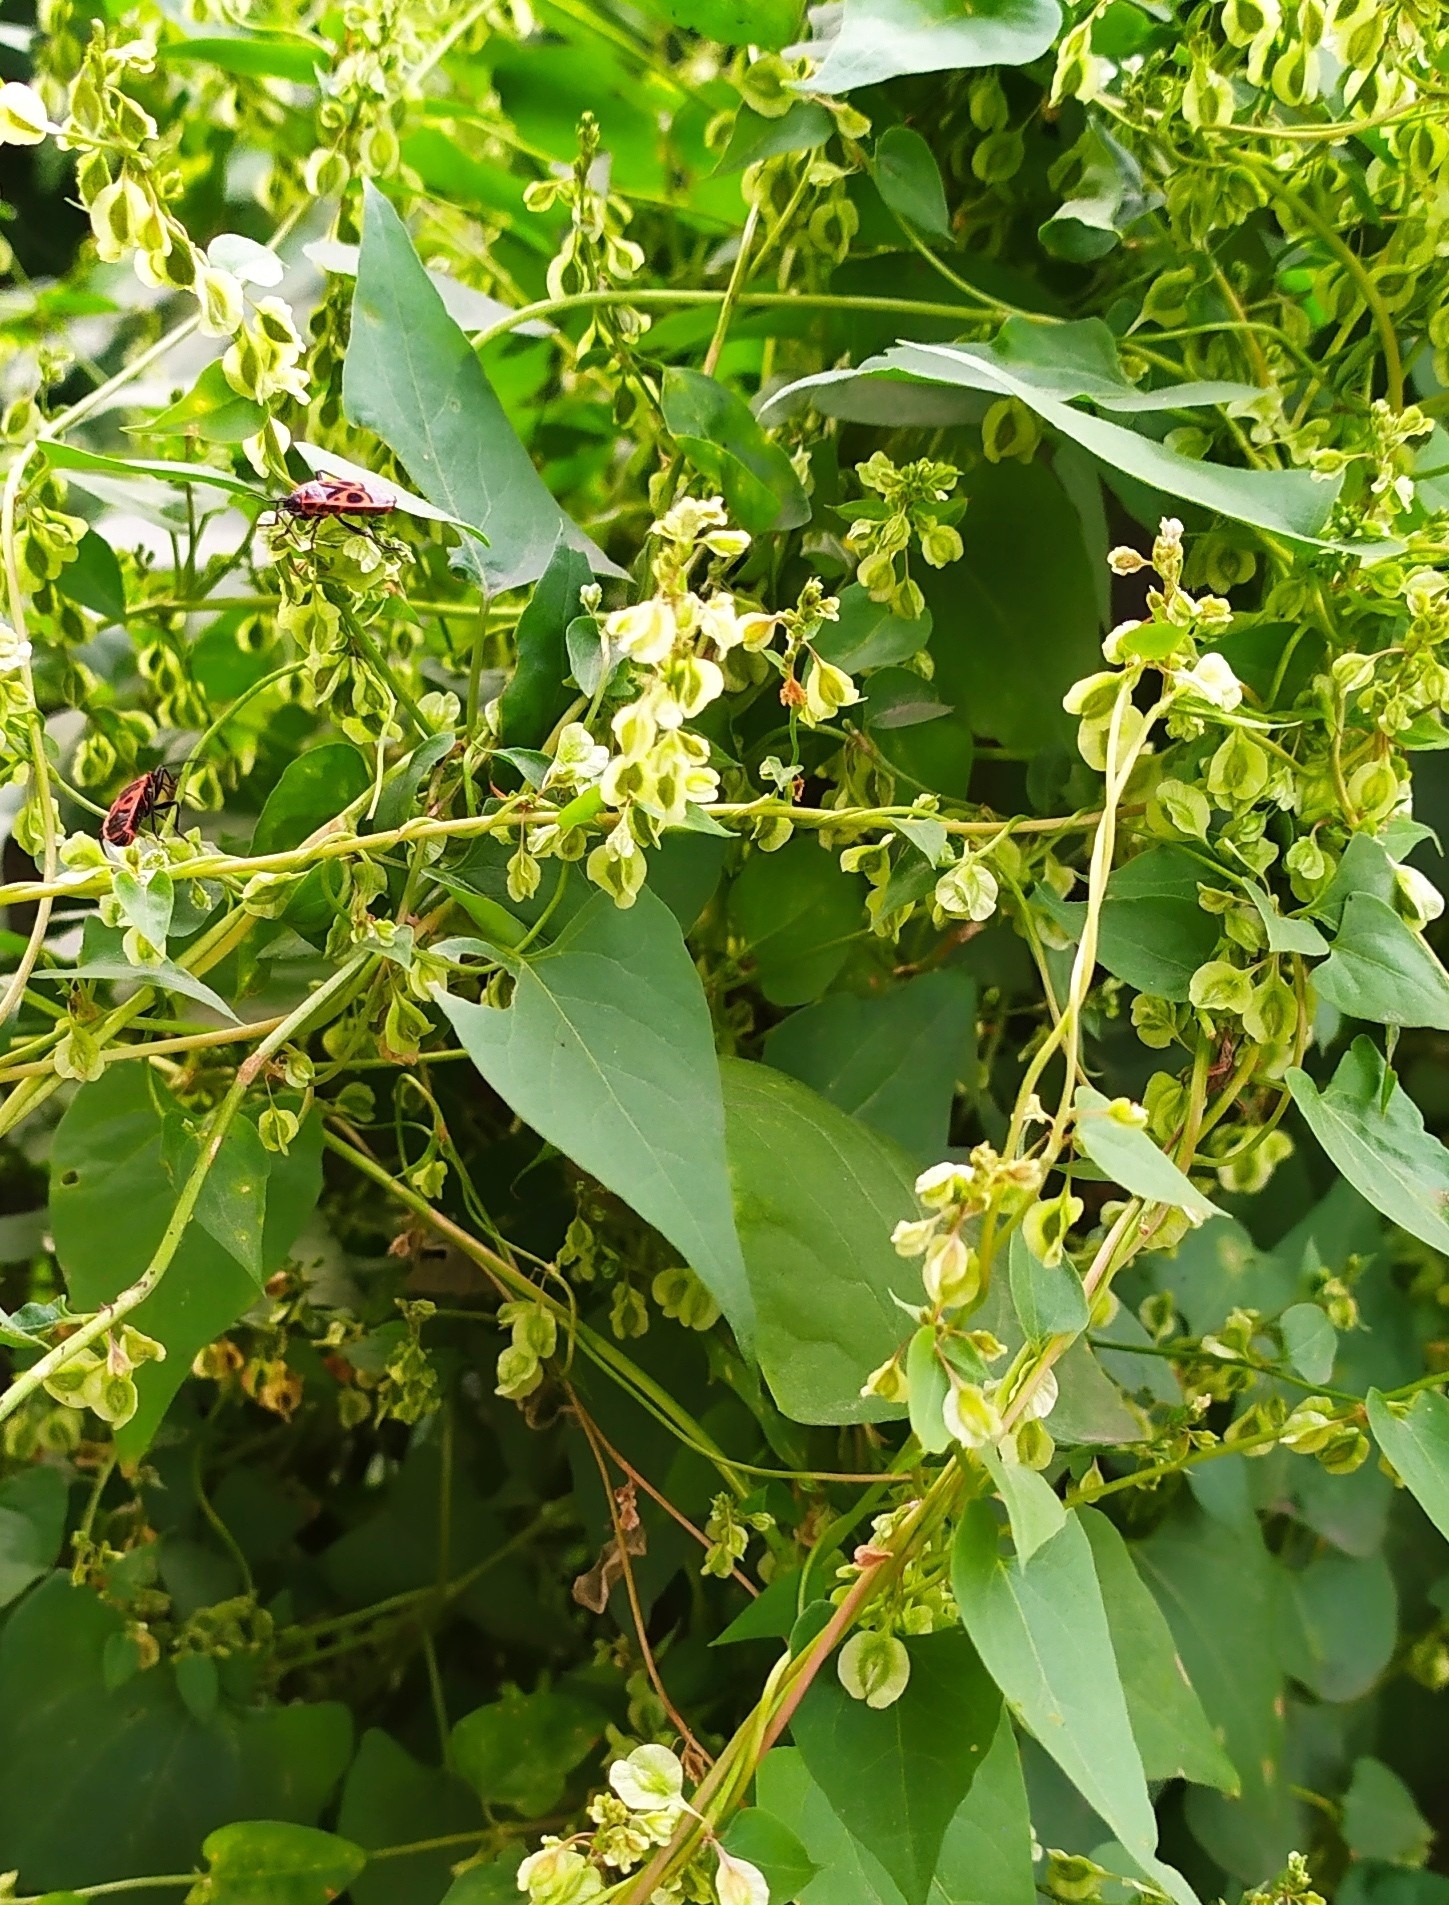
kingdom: Plantae
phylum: Tracheophyta
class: Magnoliopsida
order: Caryophyllales
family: Polygonaceae
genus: Fallopia
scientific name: Fallopia dumetorum
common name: Copse-bindweed
